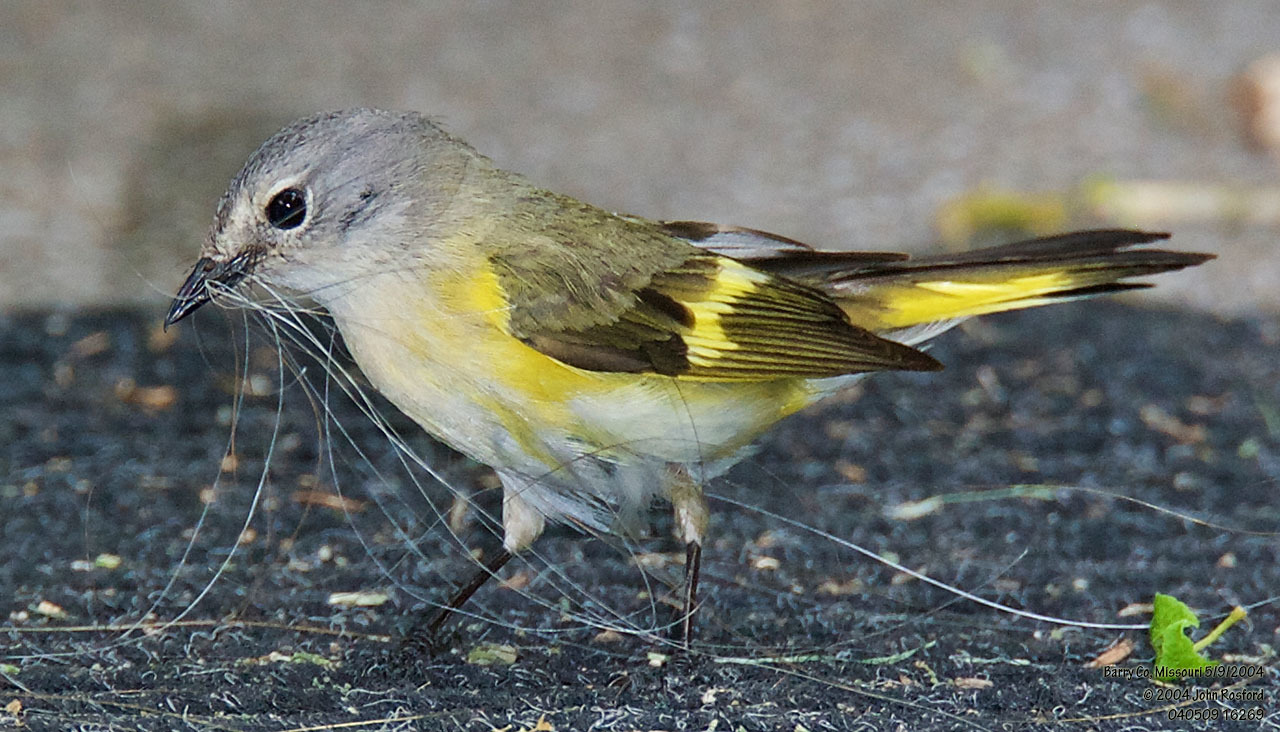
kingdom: Animalia
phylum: Chordata
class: Aves
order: Passeriformes
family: Parulidae
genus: Setophaga
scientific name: Setophaga ruticilla
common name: American redstart
